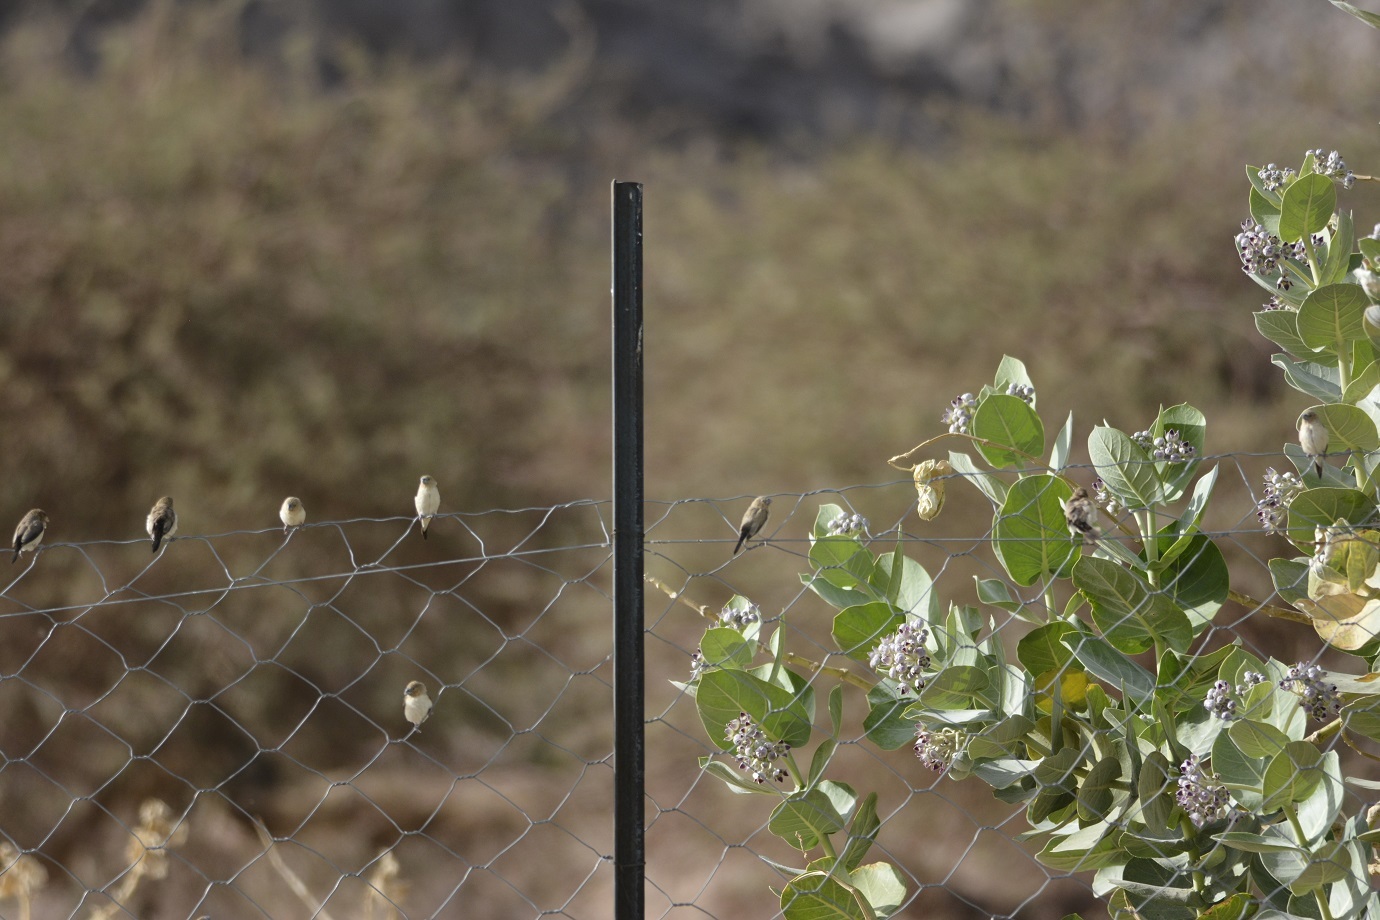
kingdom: Animalia
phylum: Chordata
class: Aves
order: Passeriformes
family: Estrildidae
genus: Euodice
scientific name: Euodice cantans
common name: African silverbill
